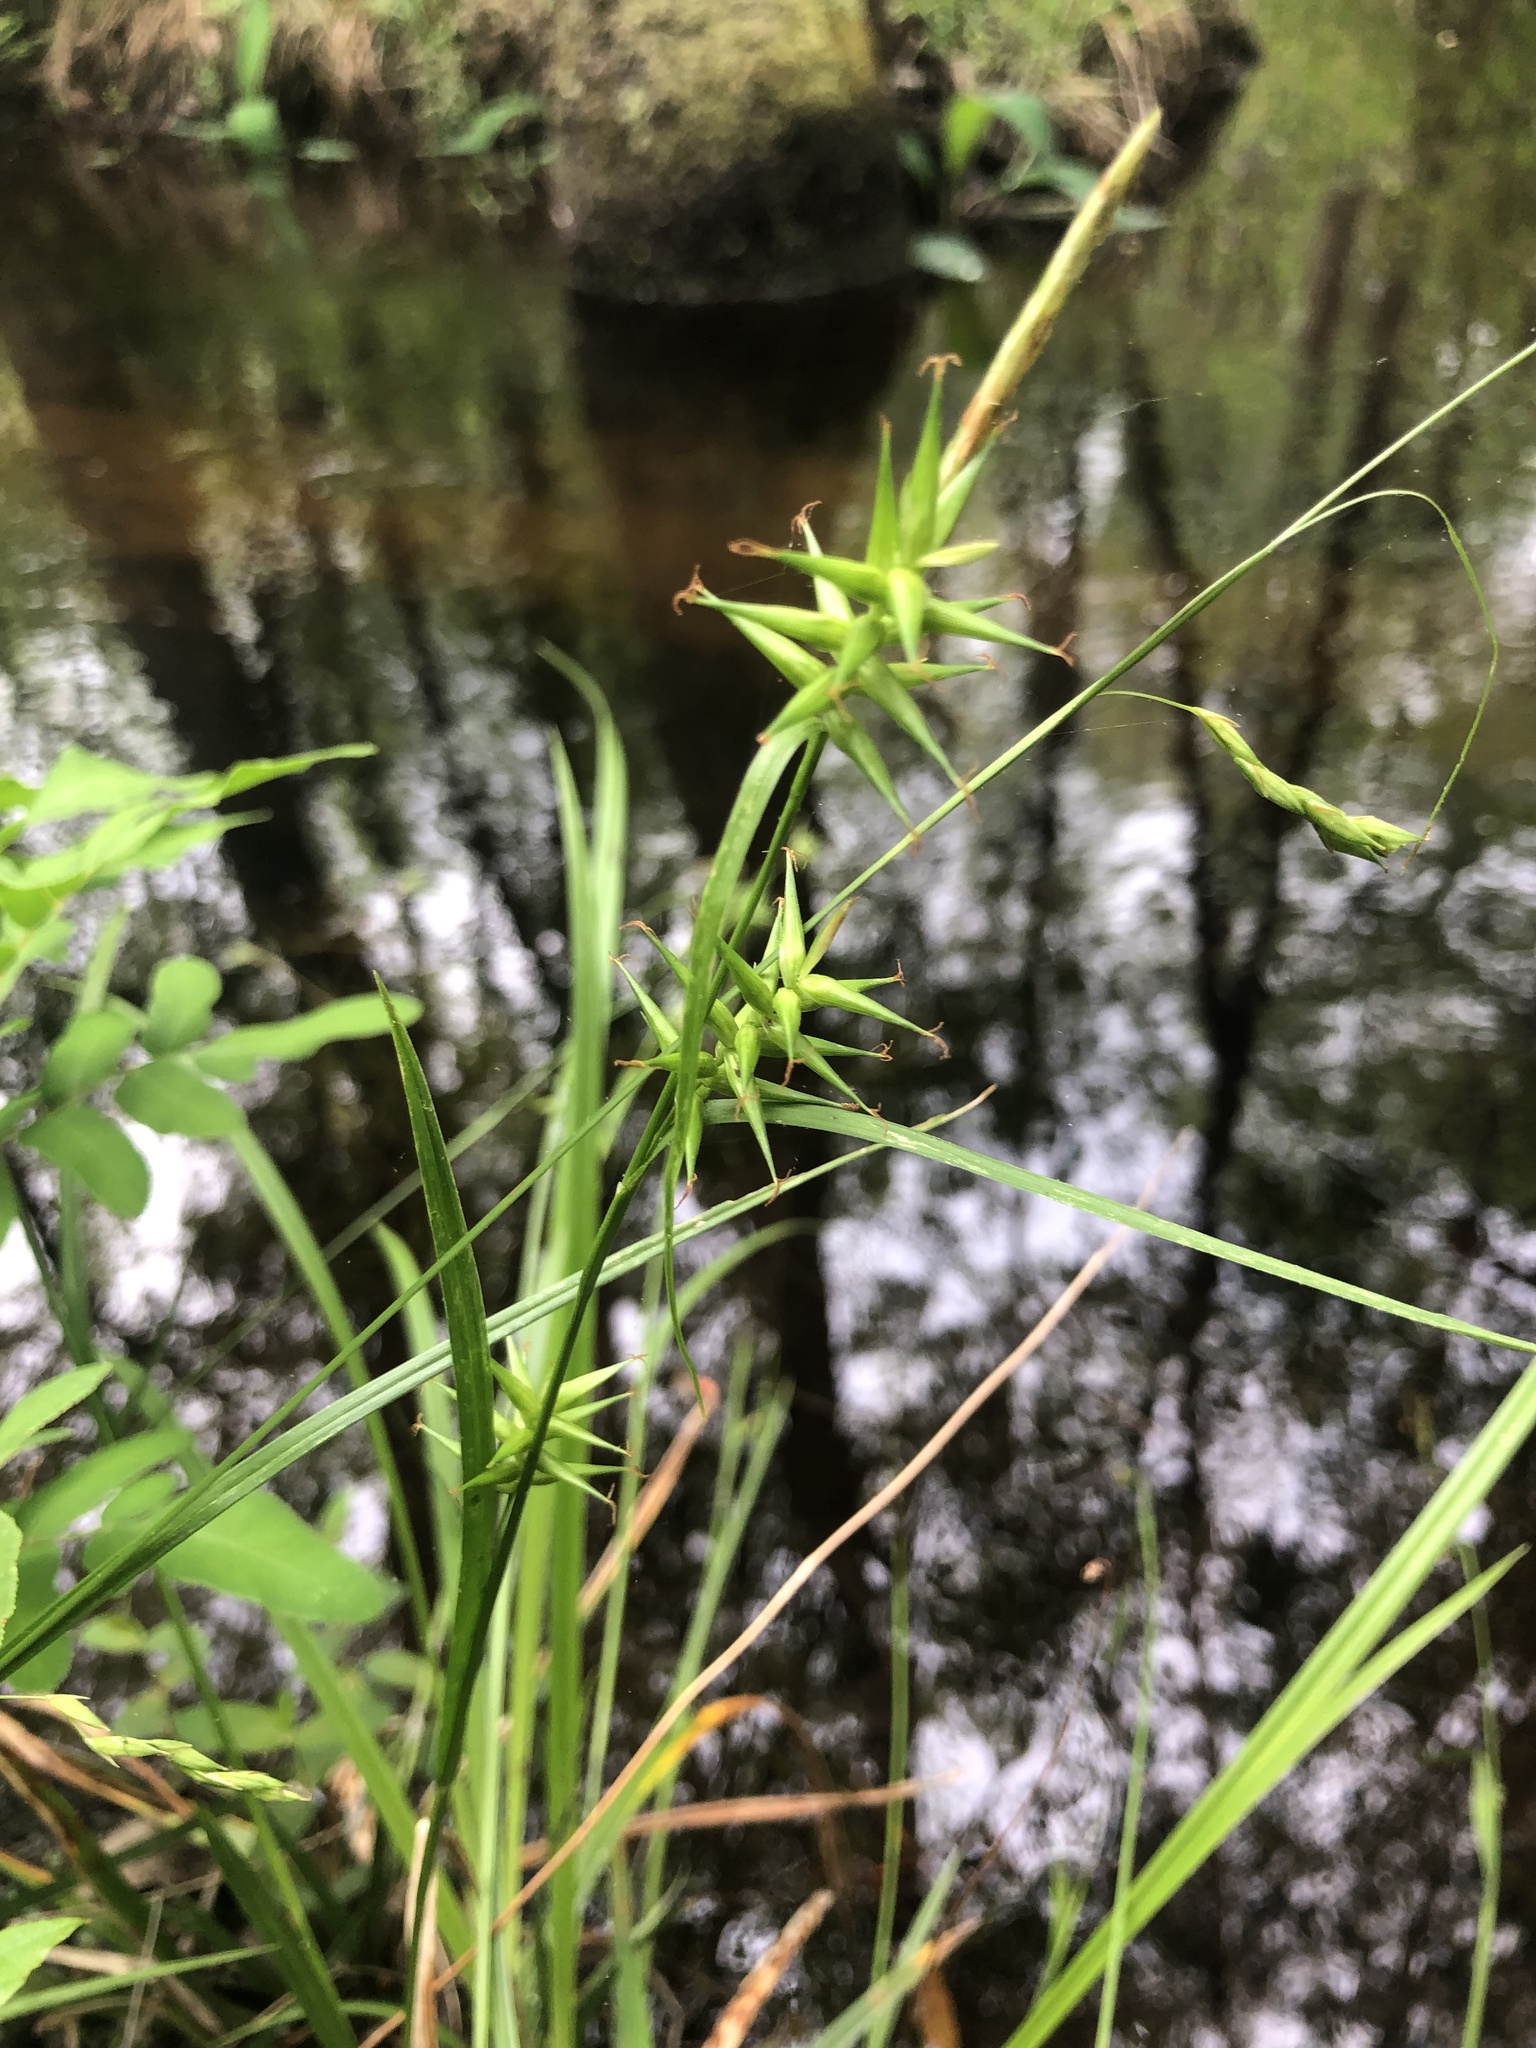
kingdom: Plantae
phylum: Tracheophyta
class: Liliopsida
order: Poales
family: Cyperaceae
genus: Carex
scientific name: Carex lonchocarpa
